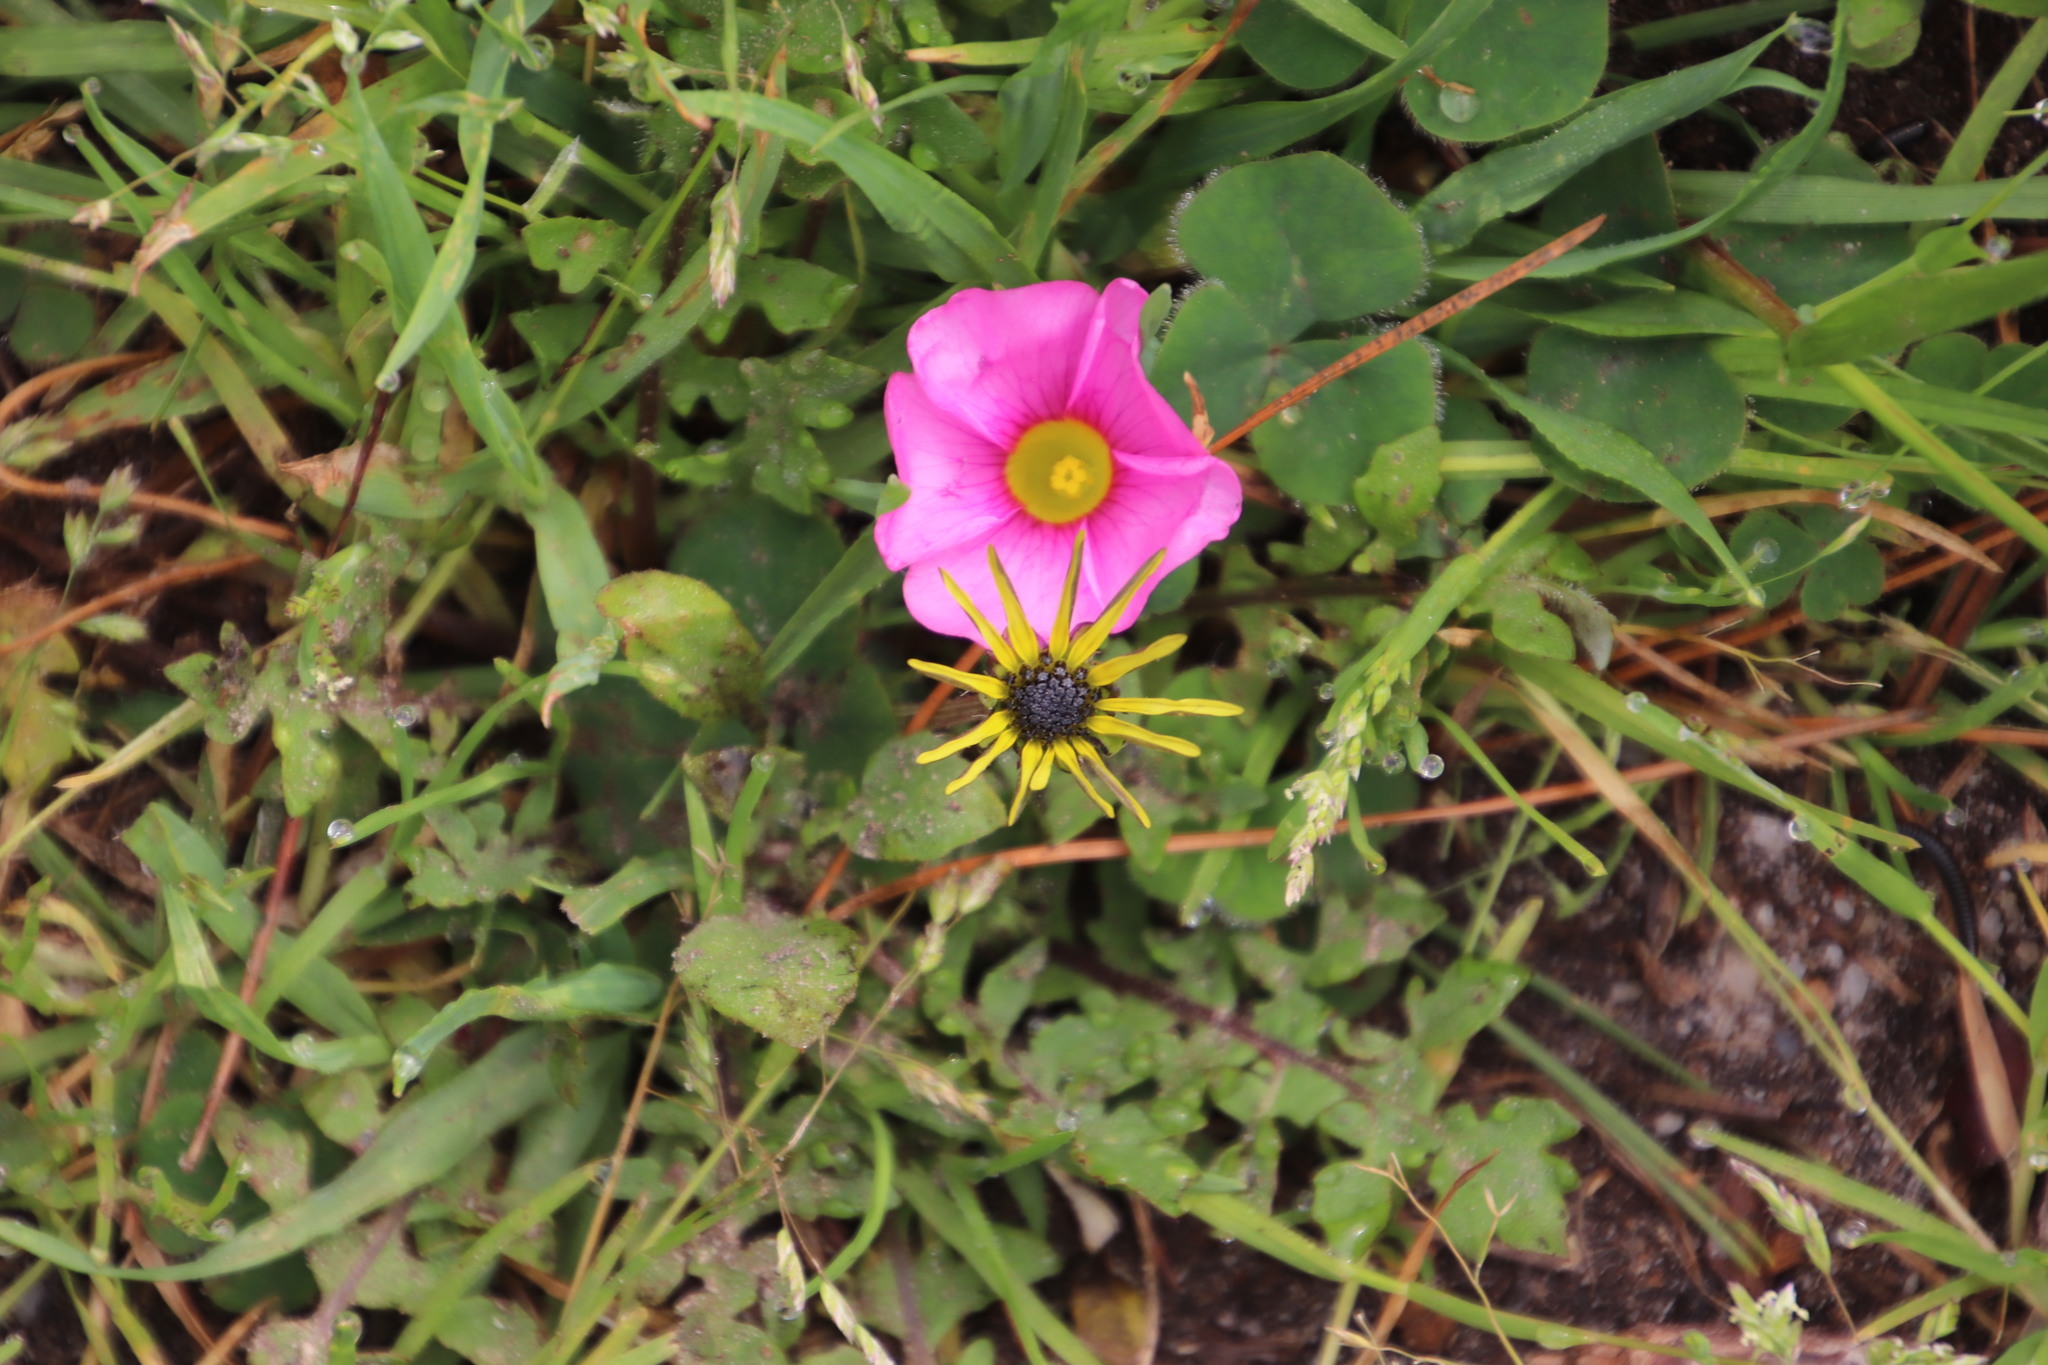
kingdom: Plantae
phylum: Tracheophyta
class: Magnoliopsida
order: Asterales
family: Asteraceae
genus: Arctotheca
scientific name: Arctotheca calendula
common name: Capeweed
